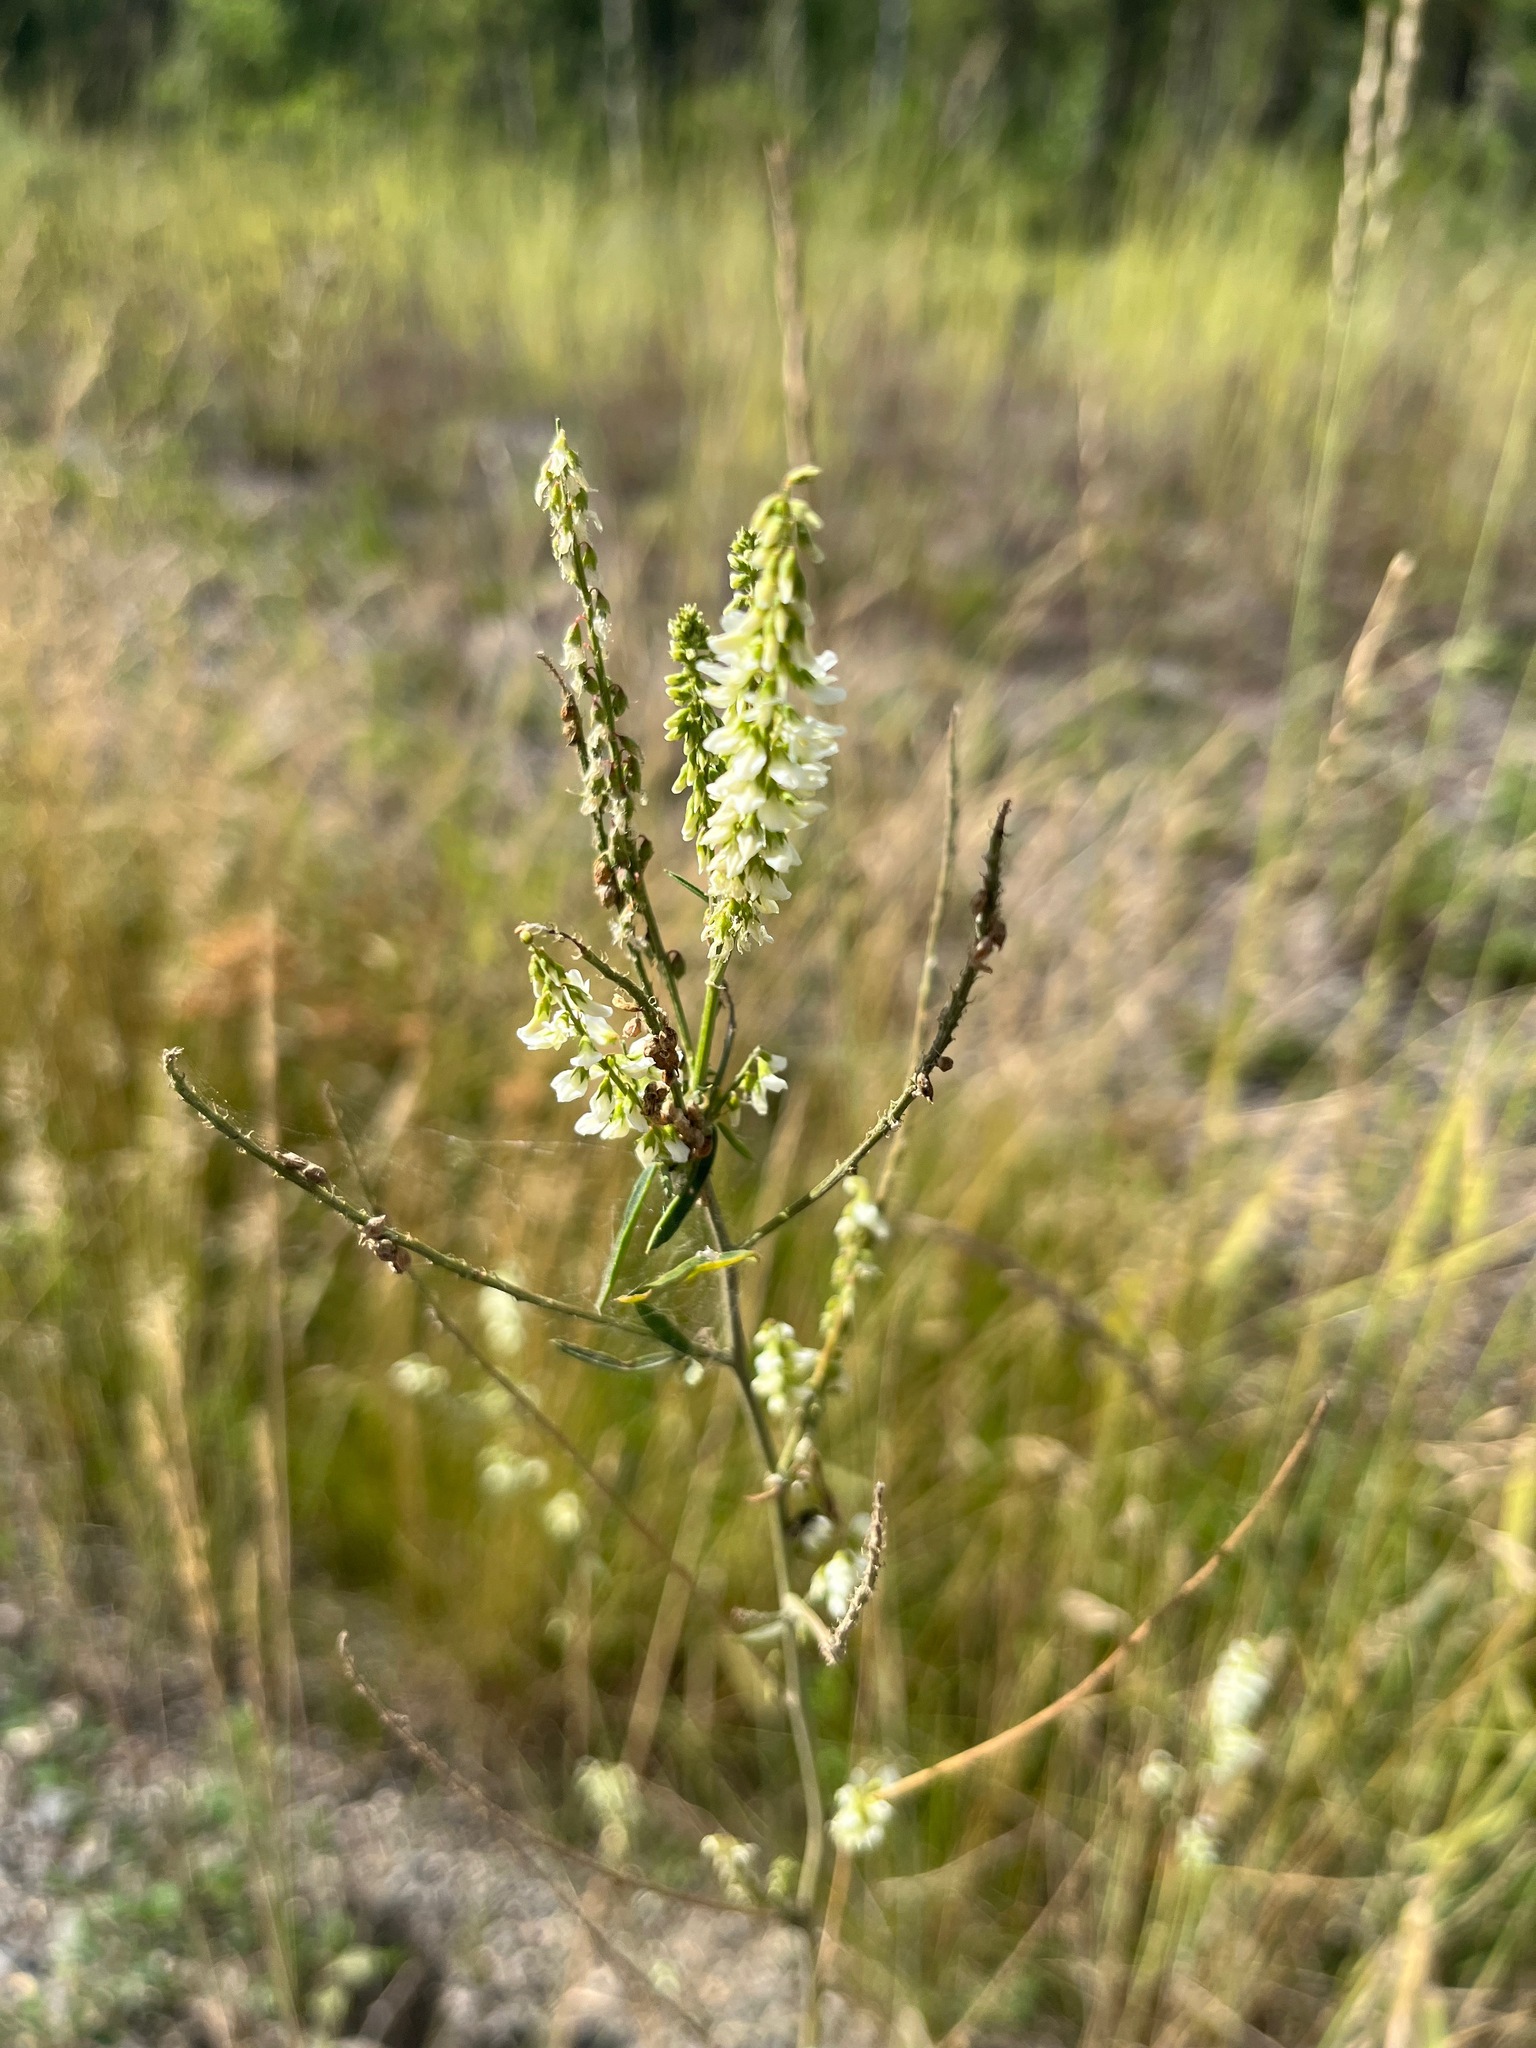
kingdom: Plantae
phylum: Tracheophyta
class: Magnoliopsida
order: Fabales
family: Fabaceae
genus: Melilotus
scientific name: Melilotus albus
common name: White melilot
